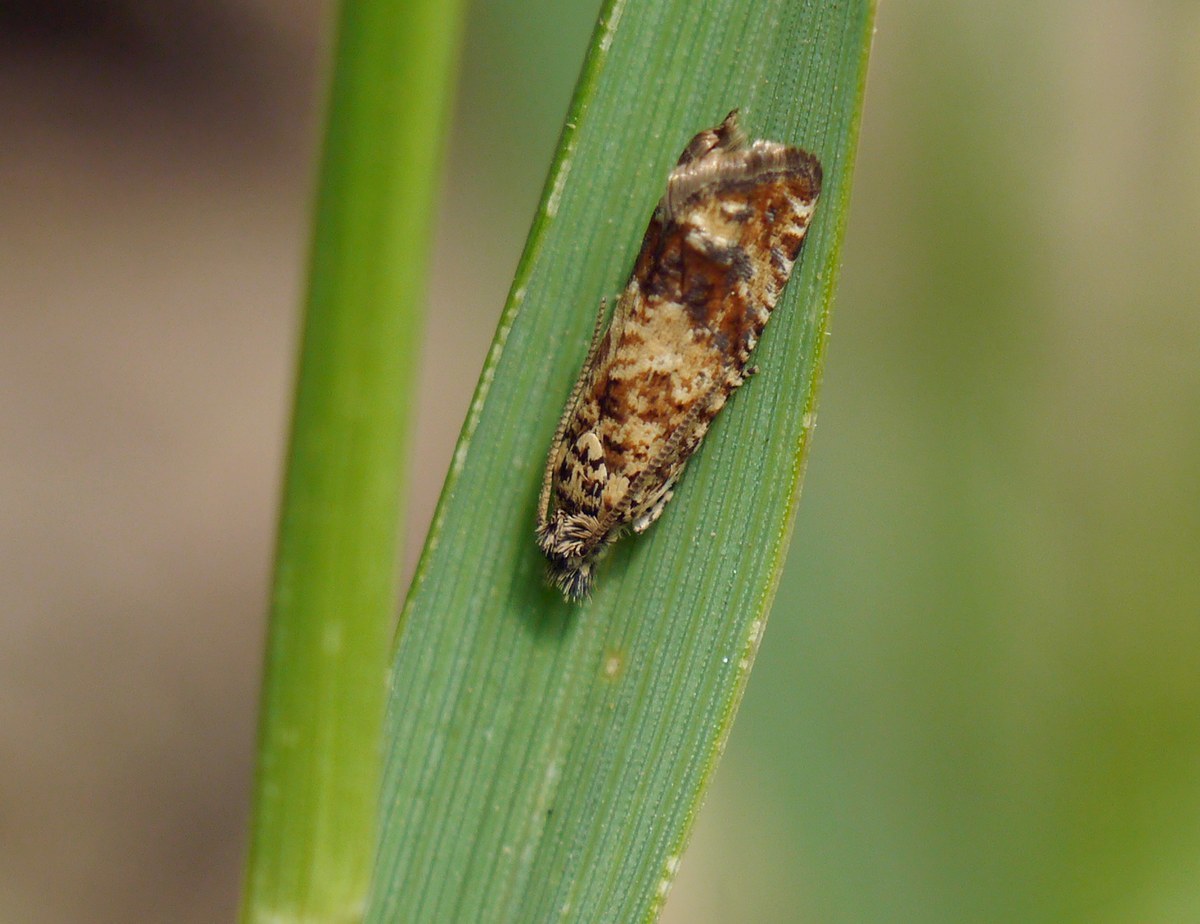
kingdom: Animalia
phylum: Arthropoda
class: Insecta
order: Lepidoptera
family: Tortricidae
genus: Epinotia
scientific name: Epinotia kochiana
